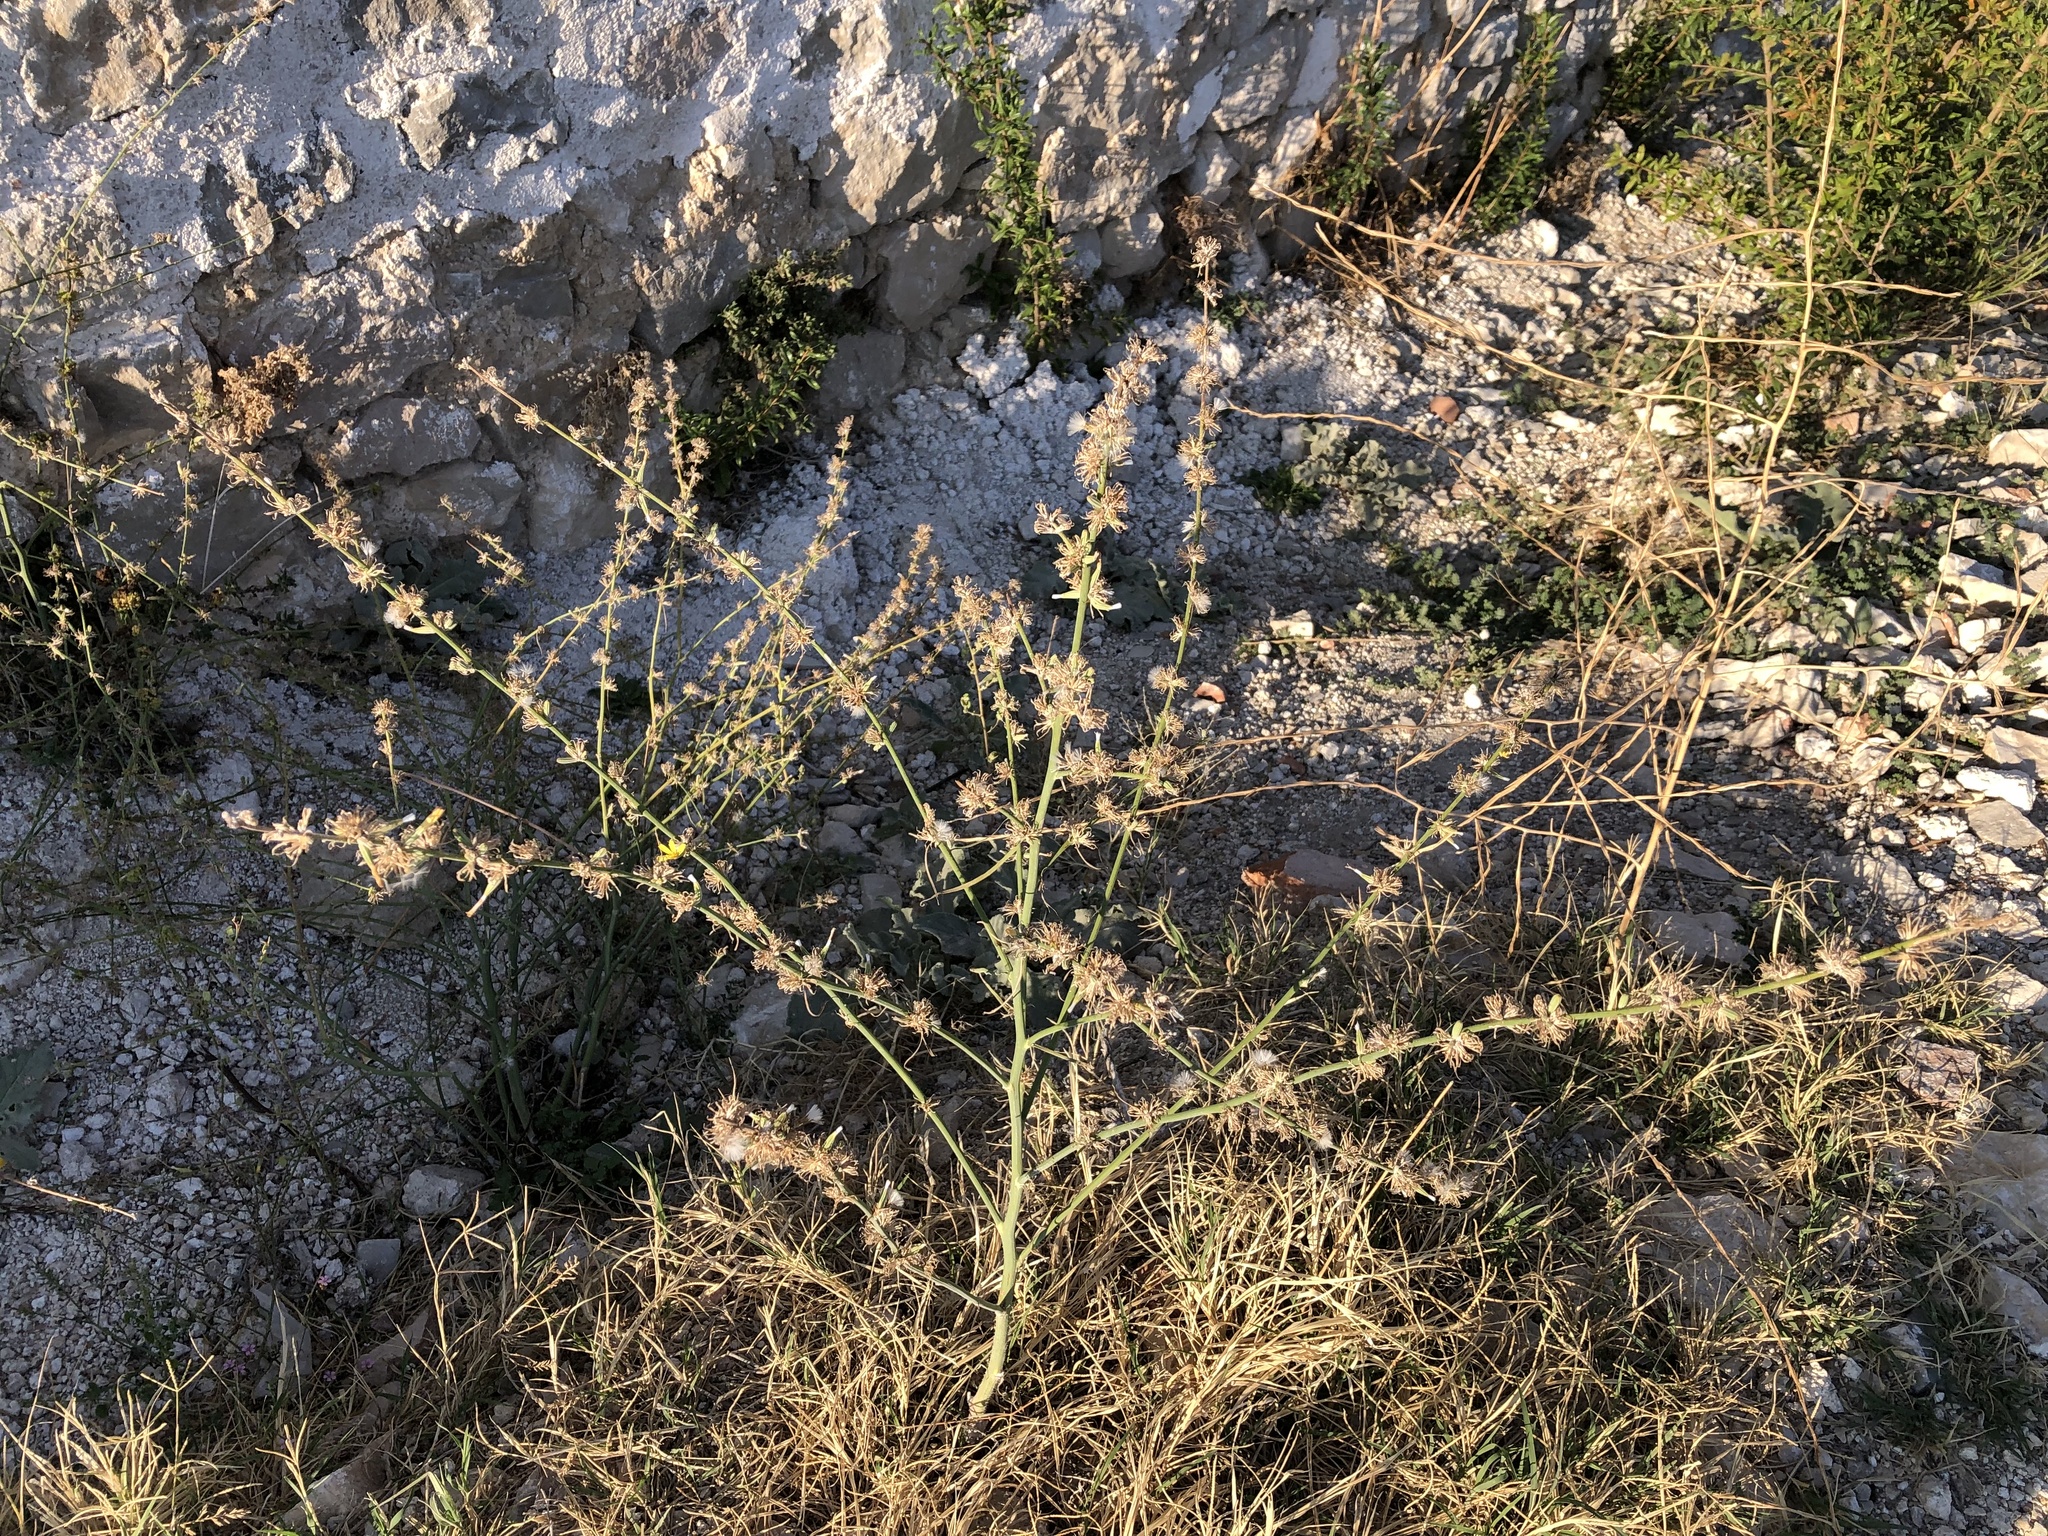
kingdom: Plantae
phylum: Tracheophyta
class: Magnoliopsida
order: Asterales
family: Asteraceae
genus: Chondrilla
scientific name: Chondrilla juncea
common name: Skeleton weed
